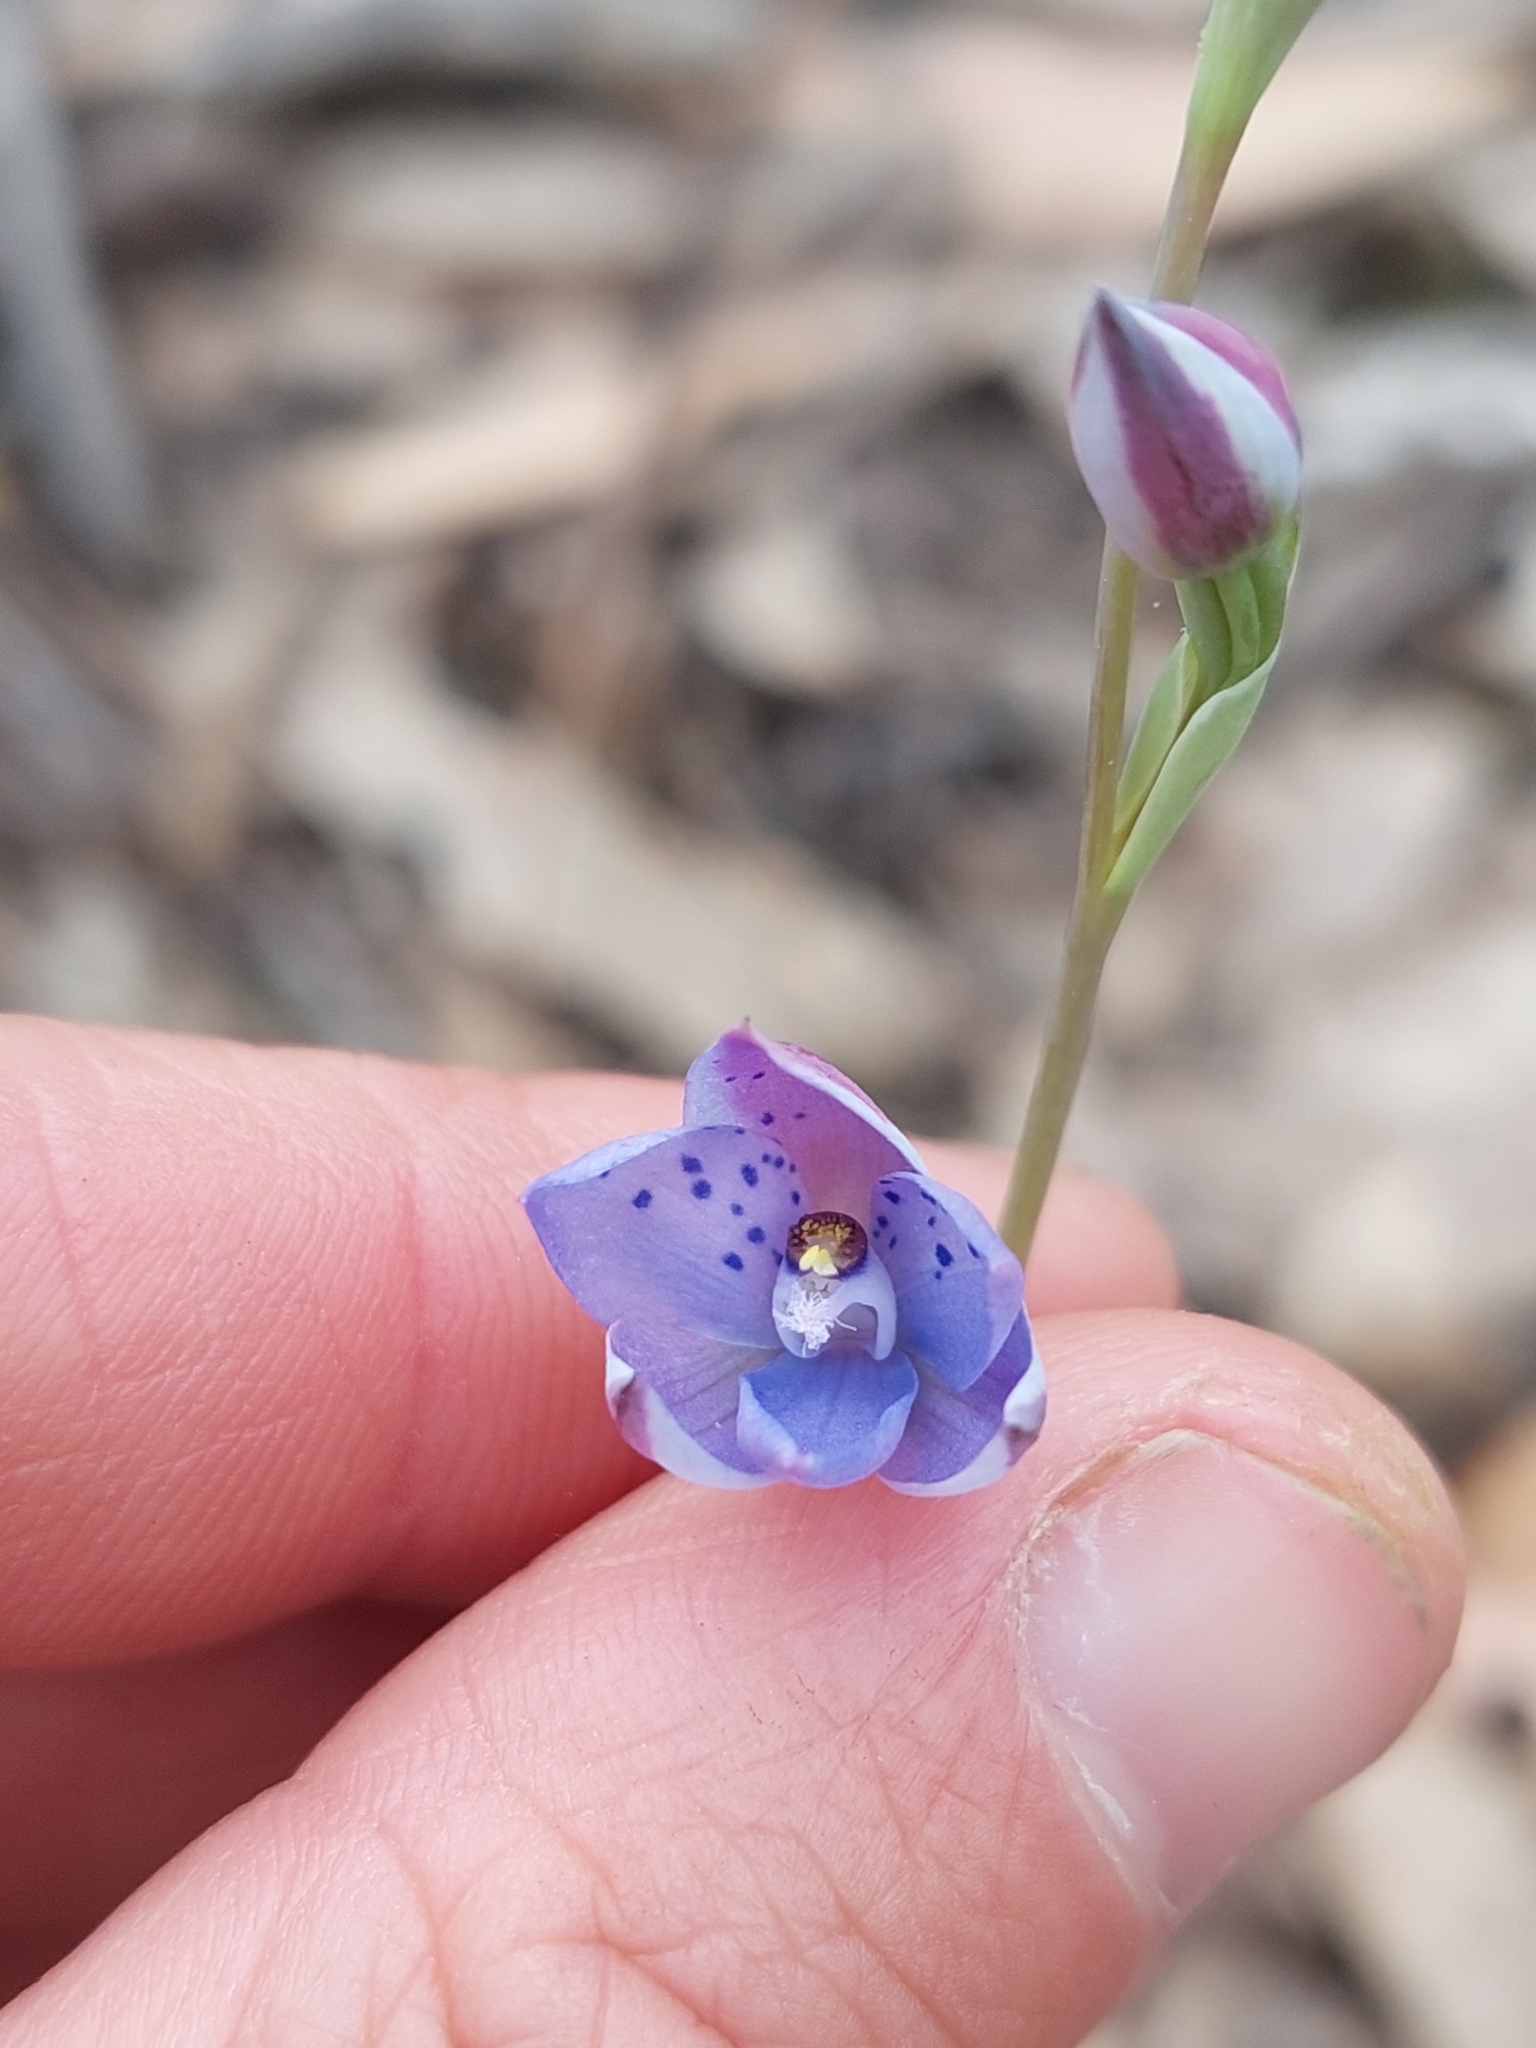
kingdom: Plantae
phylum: Tracheophyta
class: Liliopsida
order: Asparagales
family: Orchidaceae
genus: Thelymitra
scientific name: Thelymitra juncifolia
